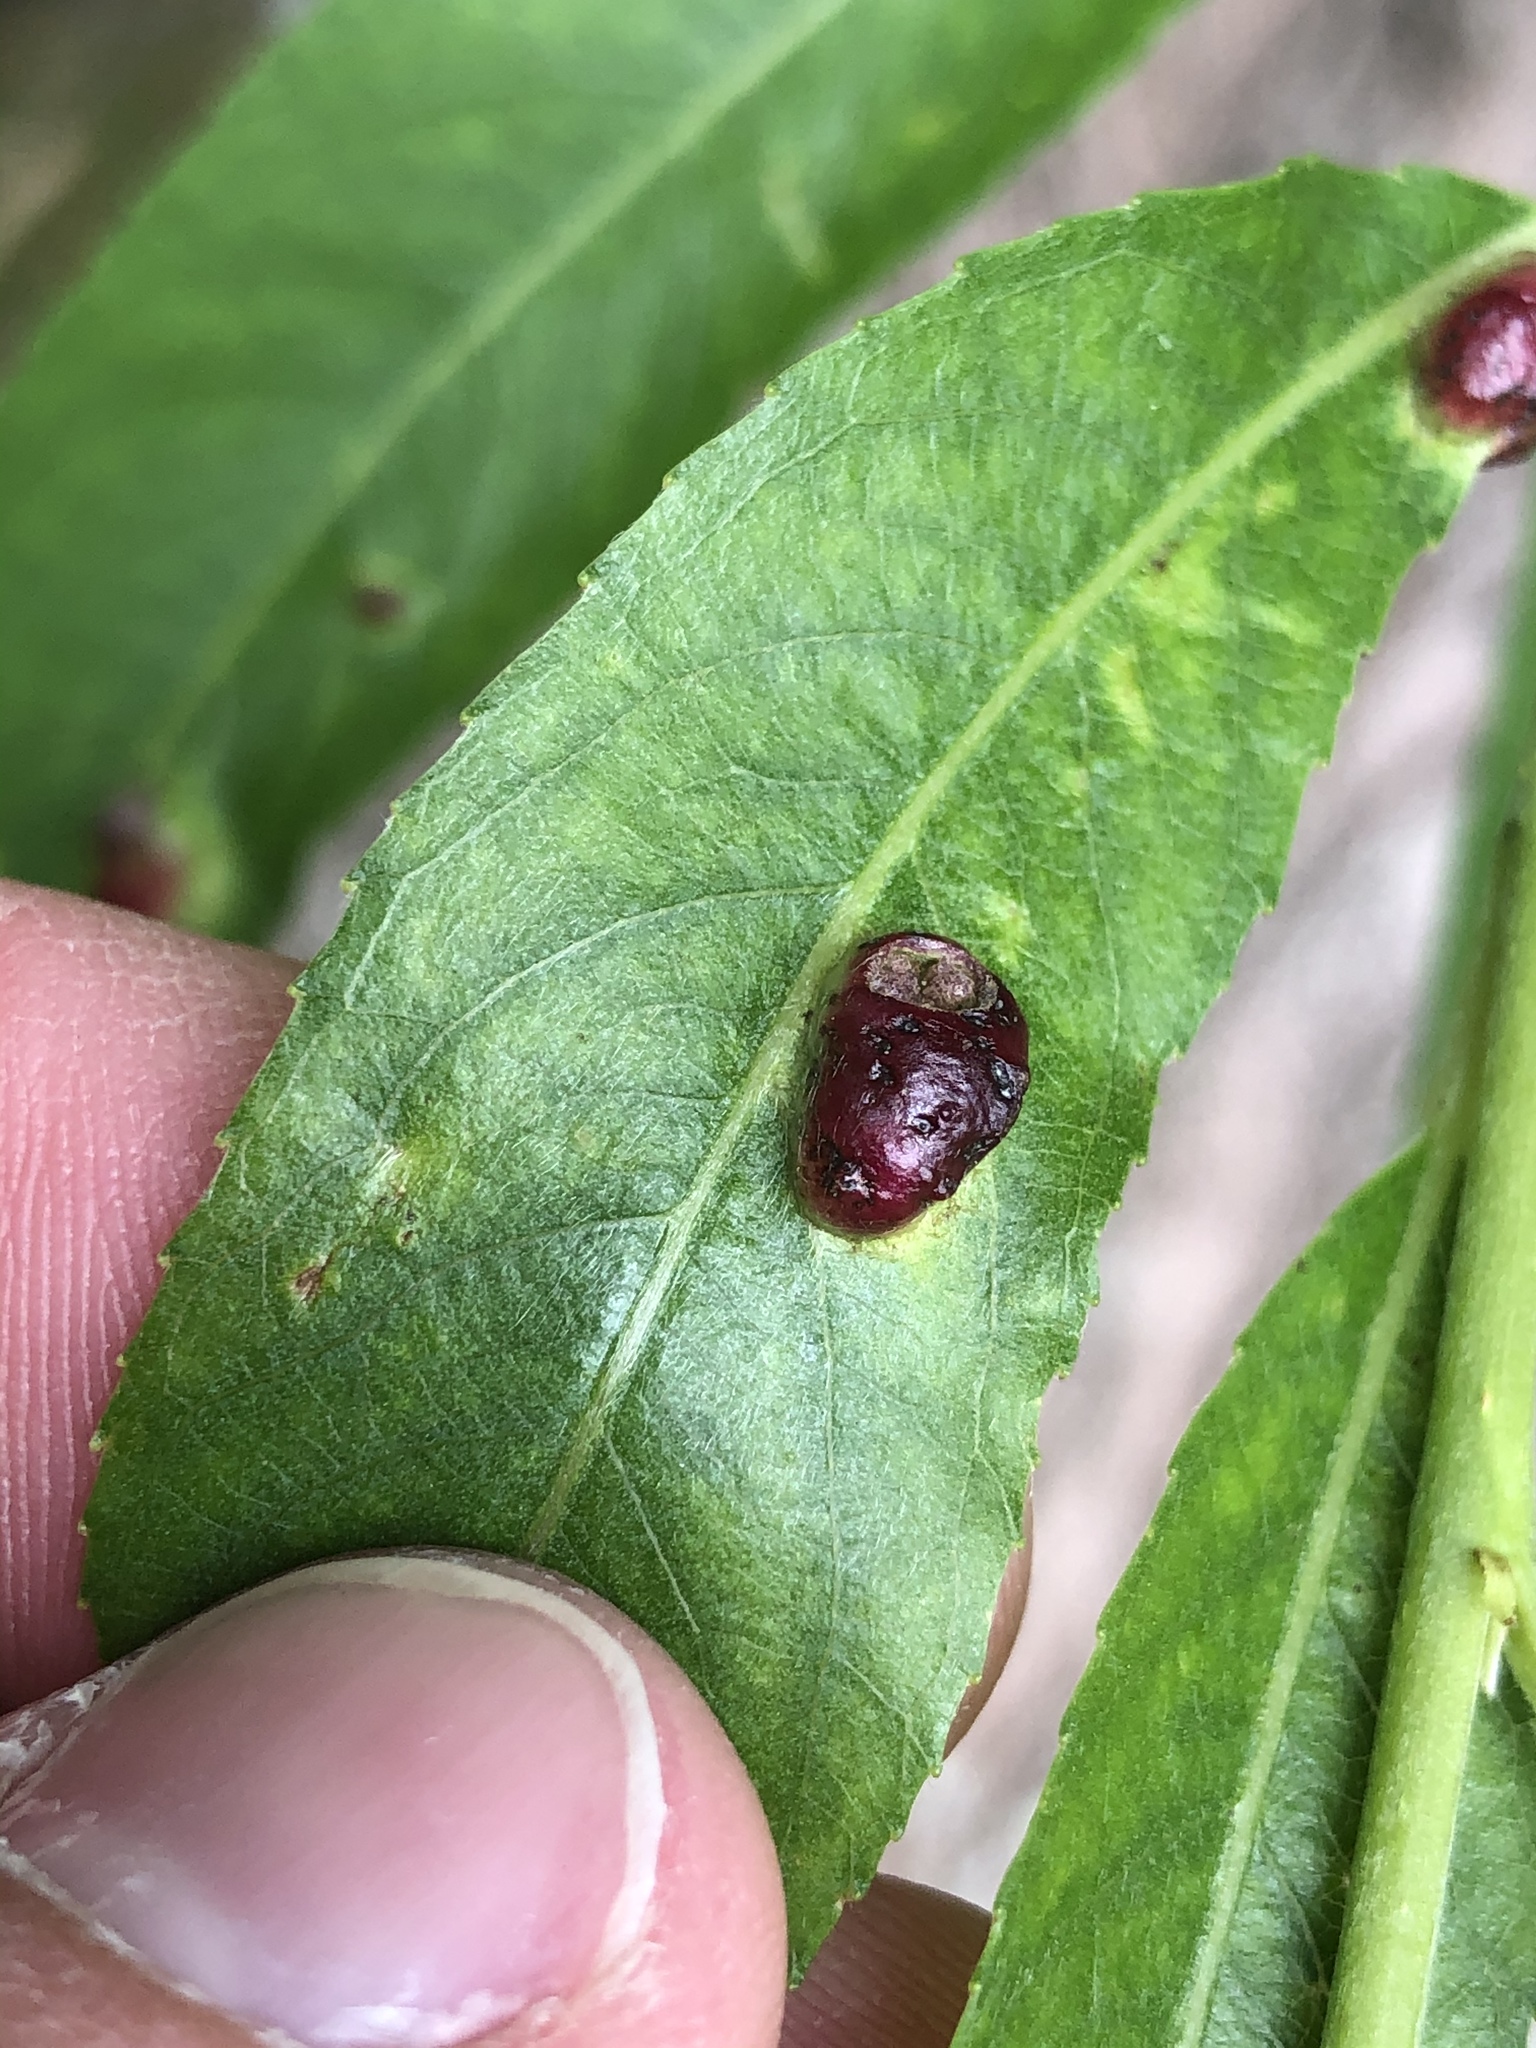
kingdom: Animalia
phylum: Arthropoda
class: Insecta
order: Hymenoptera
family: Tenthredinidae
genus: Pontania
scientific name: Pontania proxima
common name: Common sawfly
